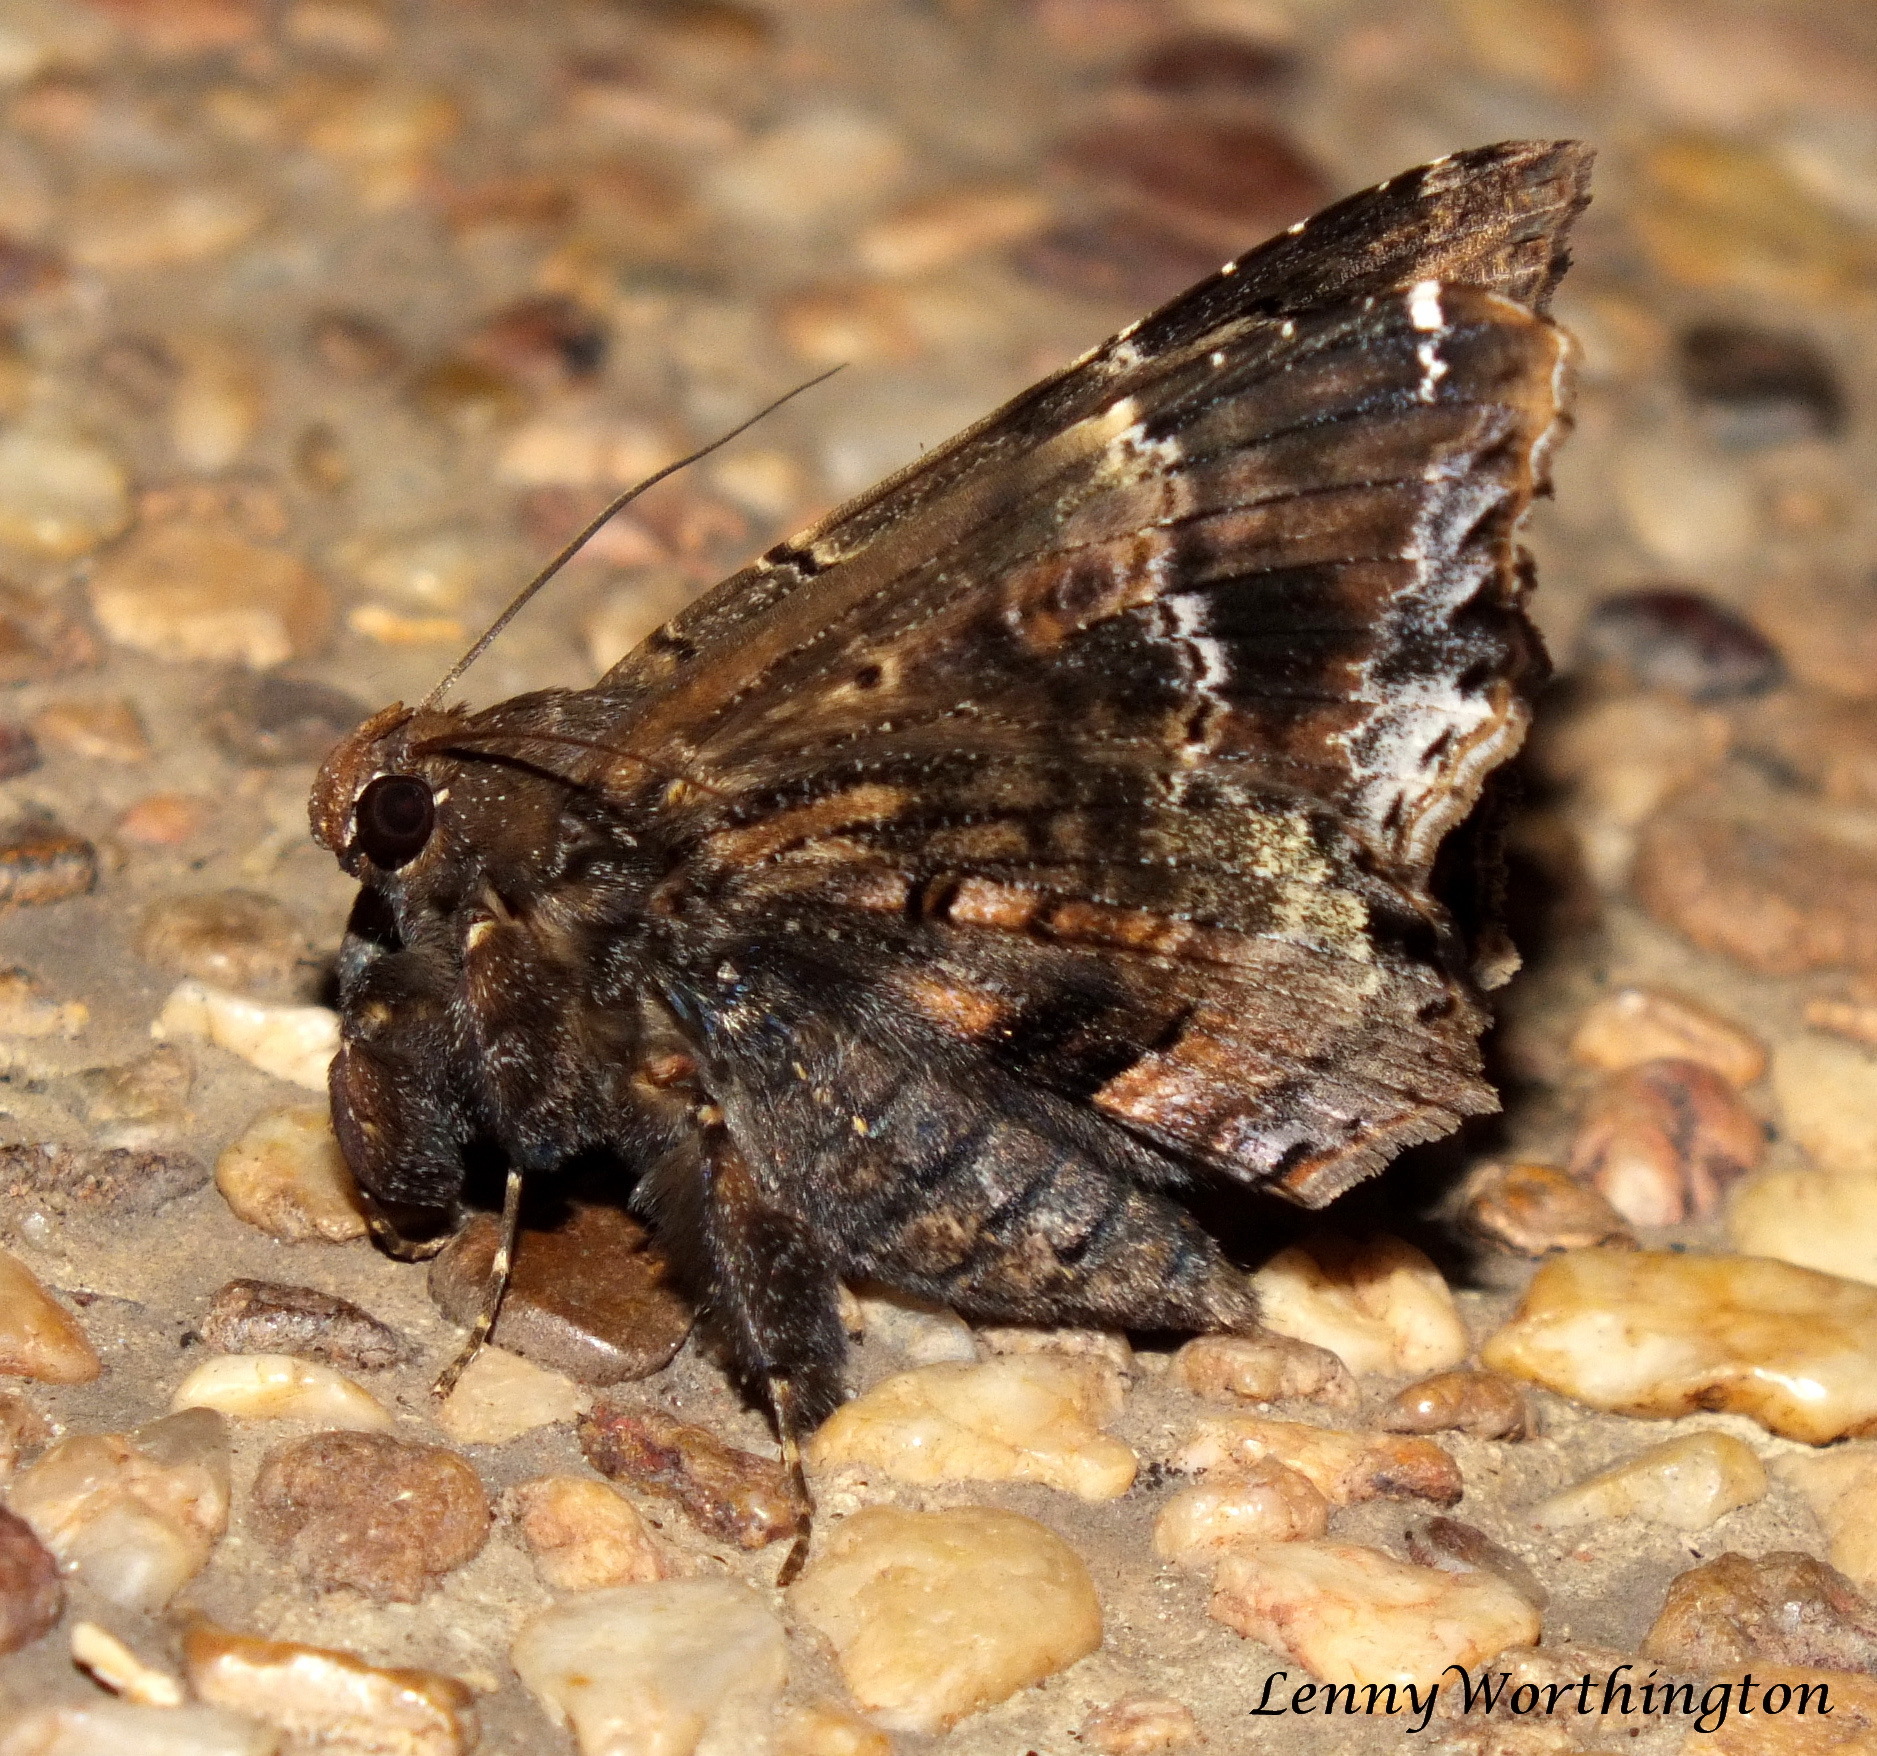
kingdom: Animalia
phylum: Arthropoda
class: Insecta
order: Lepidoptera
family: Erebidae
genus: Lacera
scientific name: Lacera procellosa
